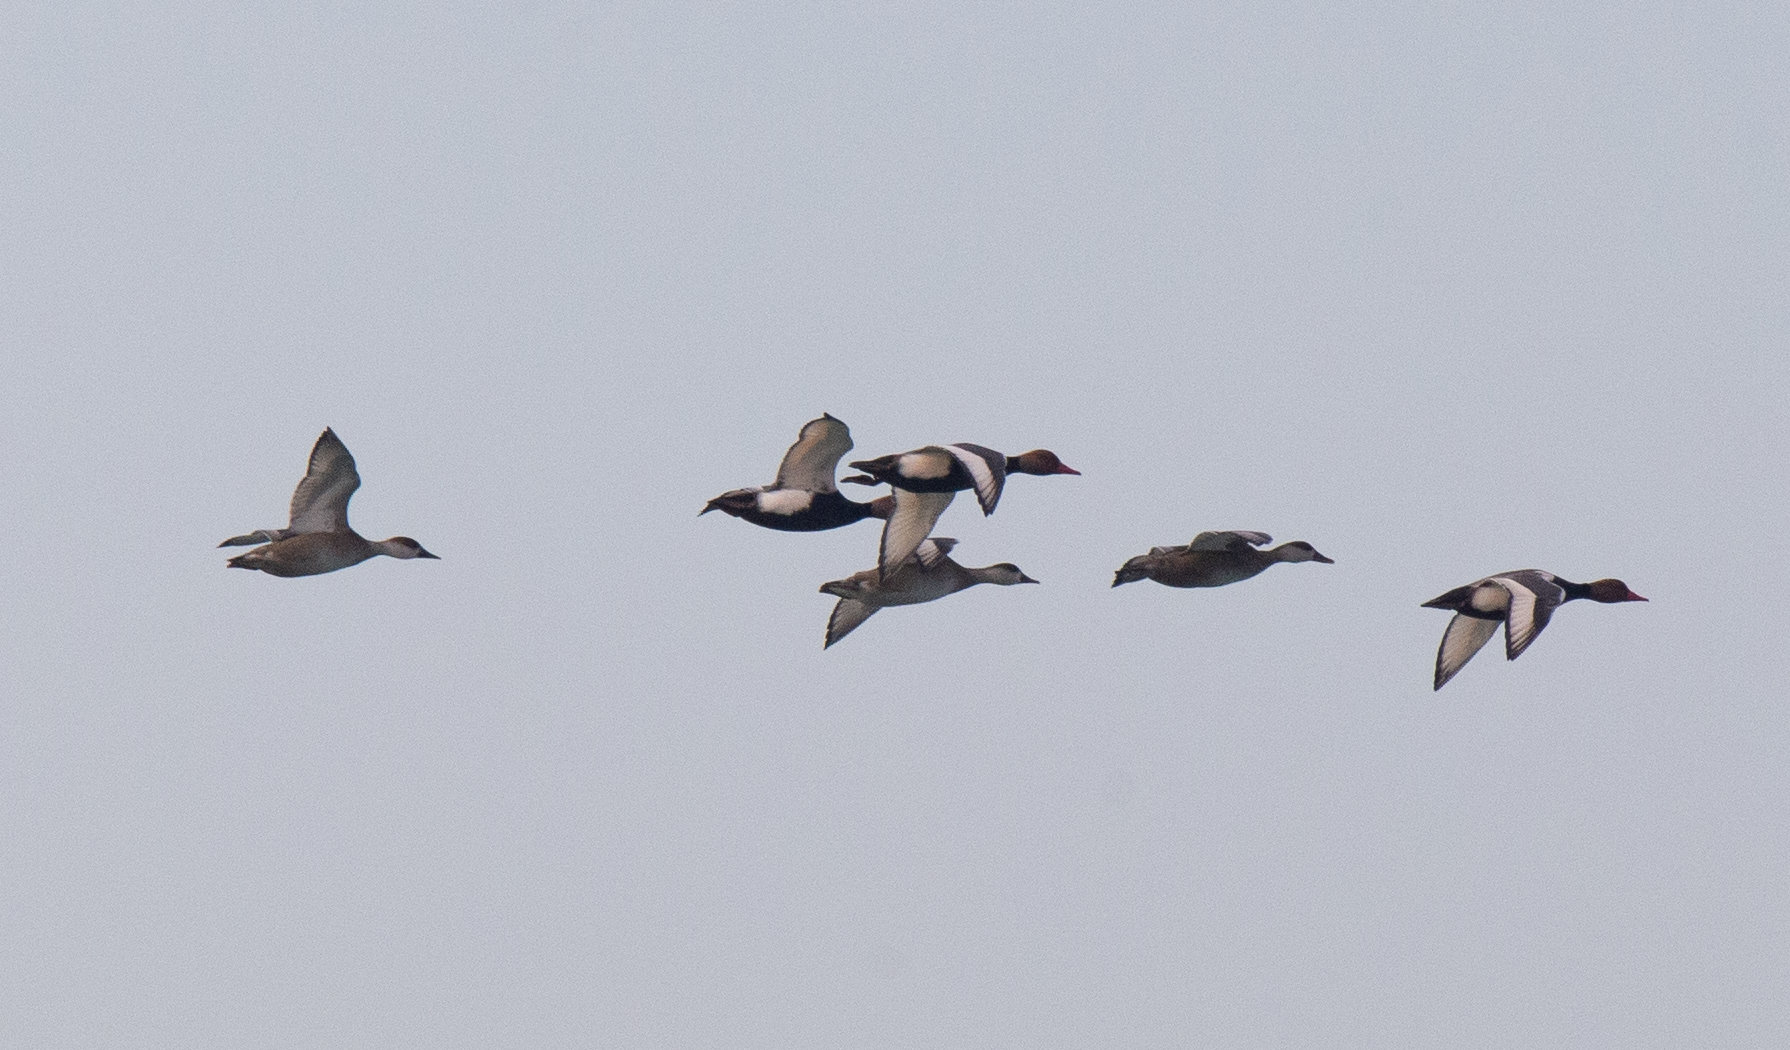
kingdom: Animalia
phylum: Chordata
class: Aves
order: Anseriformes
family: Anatidae
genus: Netta
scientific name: Netta rufina
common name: Red-crested pochard
